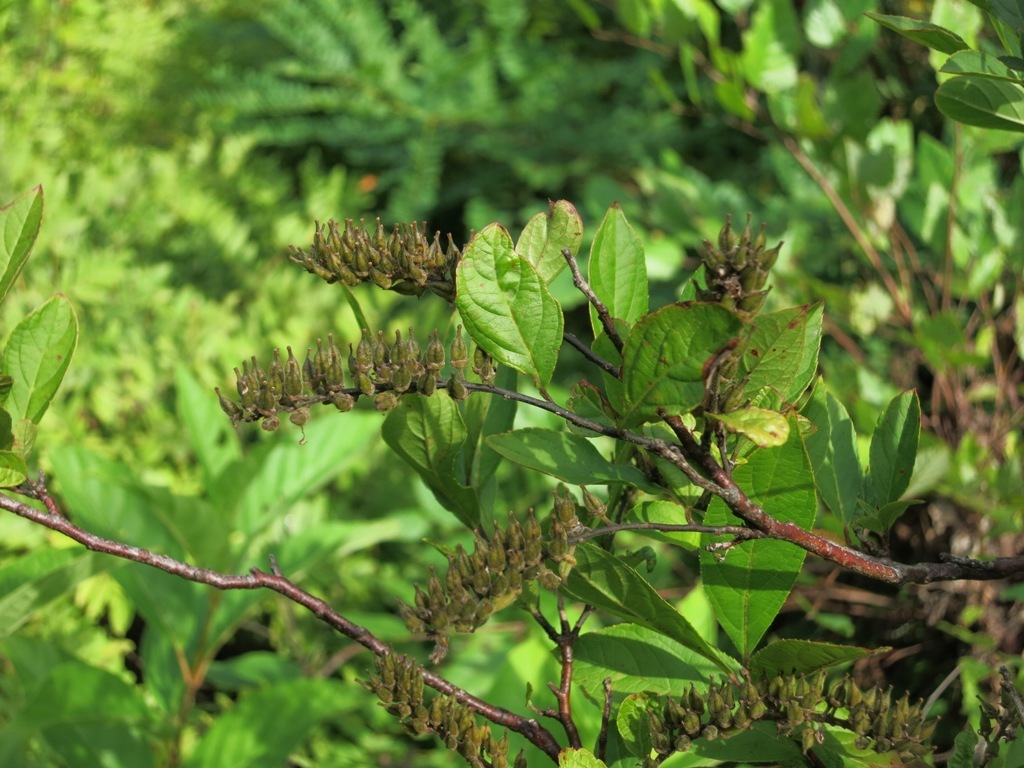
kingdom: Plantae
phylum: Tracheophyta
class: Magnoliopsida
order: Saxifragales
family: Iteaceae
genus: Itea
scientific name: Itea virginica
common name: Sweetspire
